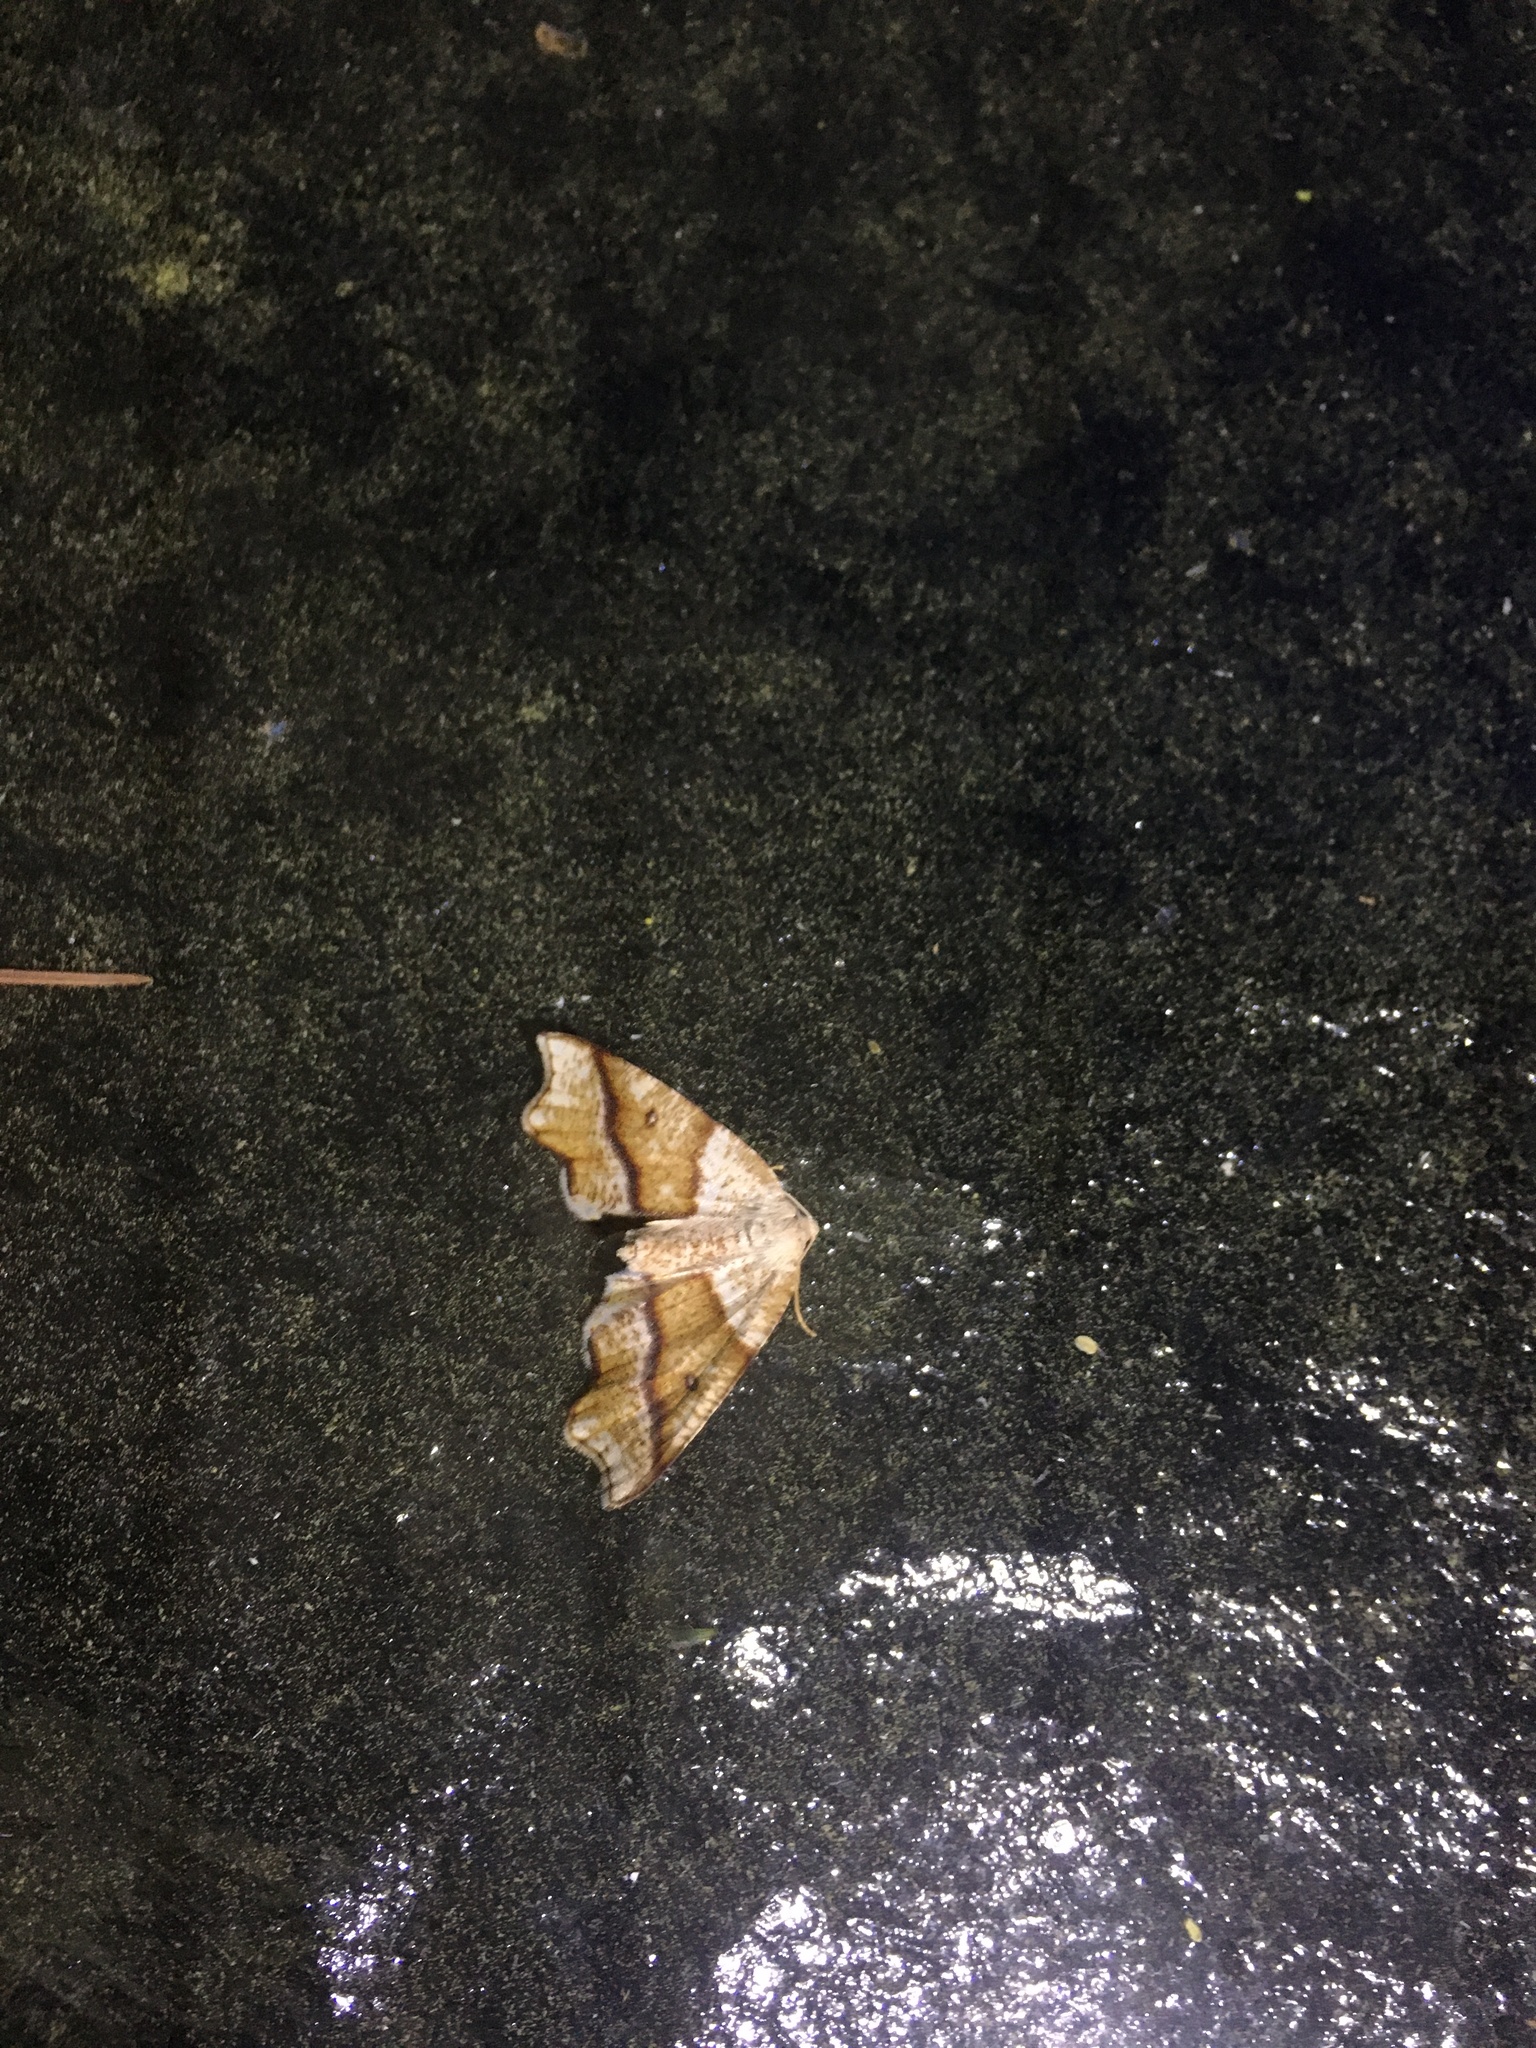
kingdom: Animalia
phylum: Arthropoda
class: Insecta
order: Lepidoptera
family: Geometridae
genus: Plagodis
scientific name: Plagodis alcoolaria
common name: Hollow-spotted plagodis
